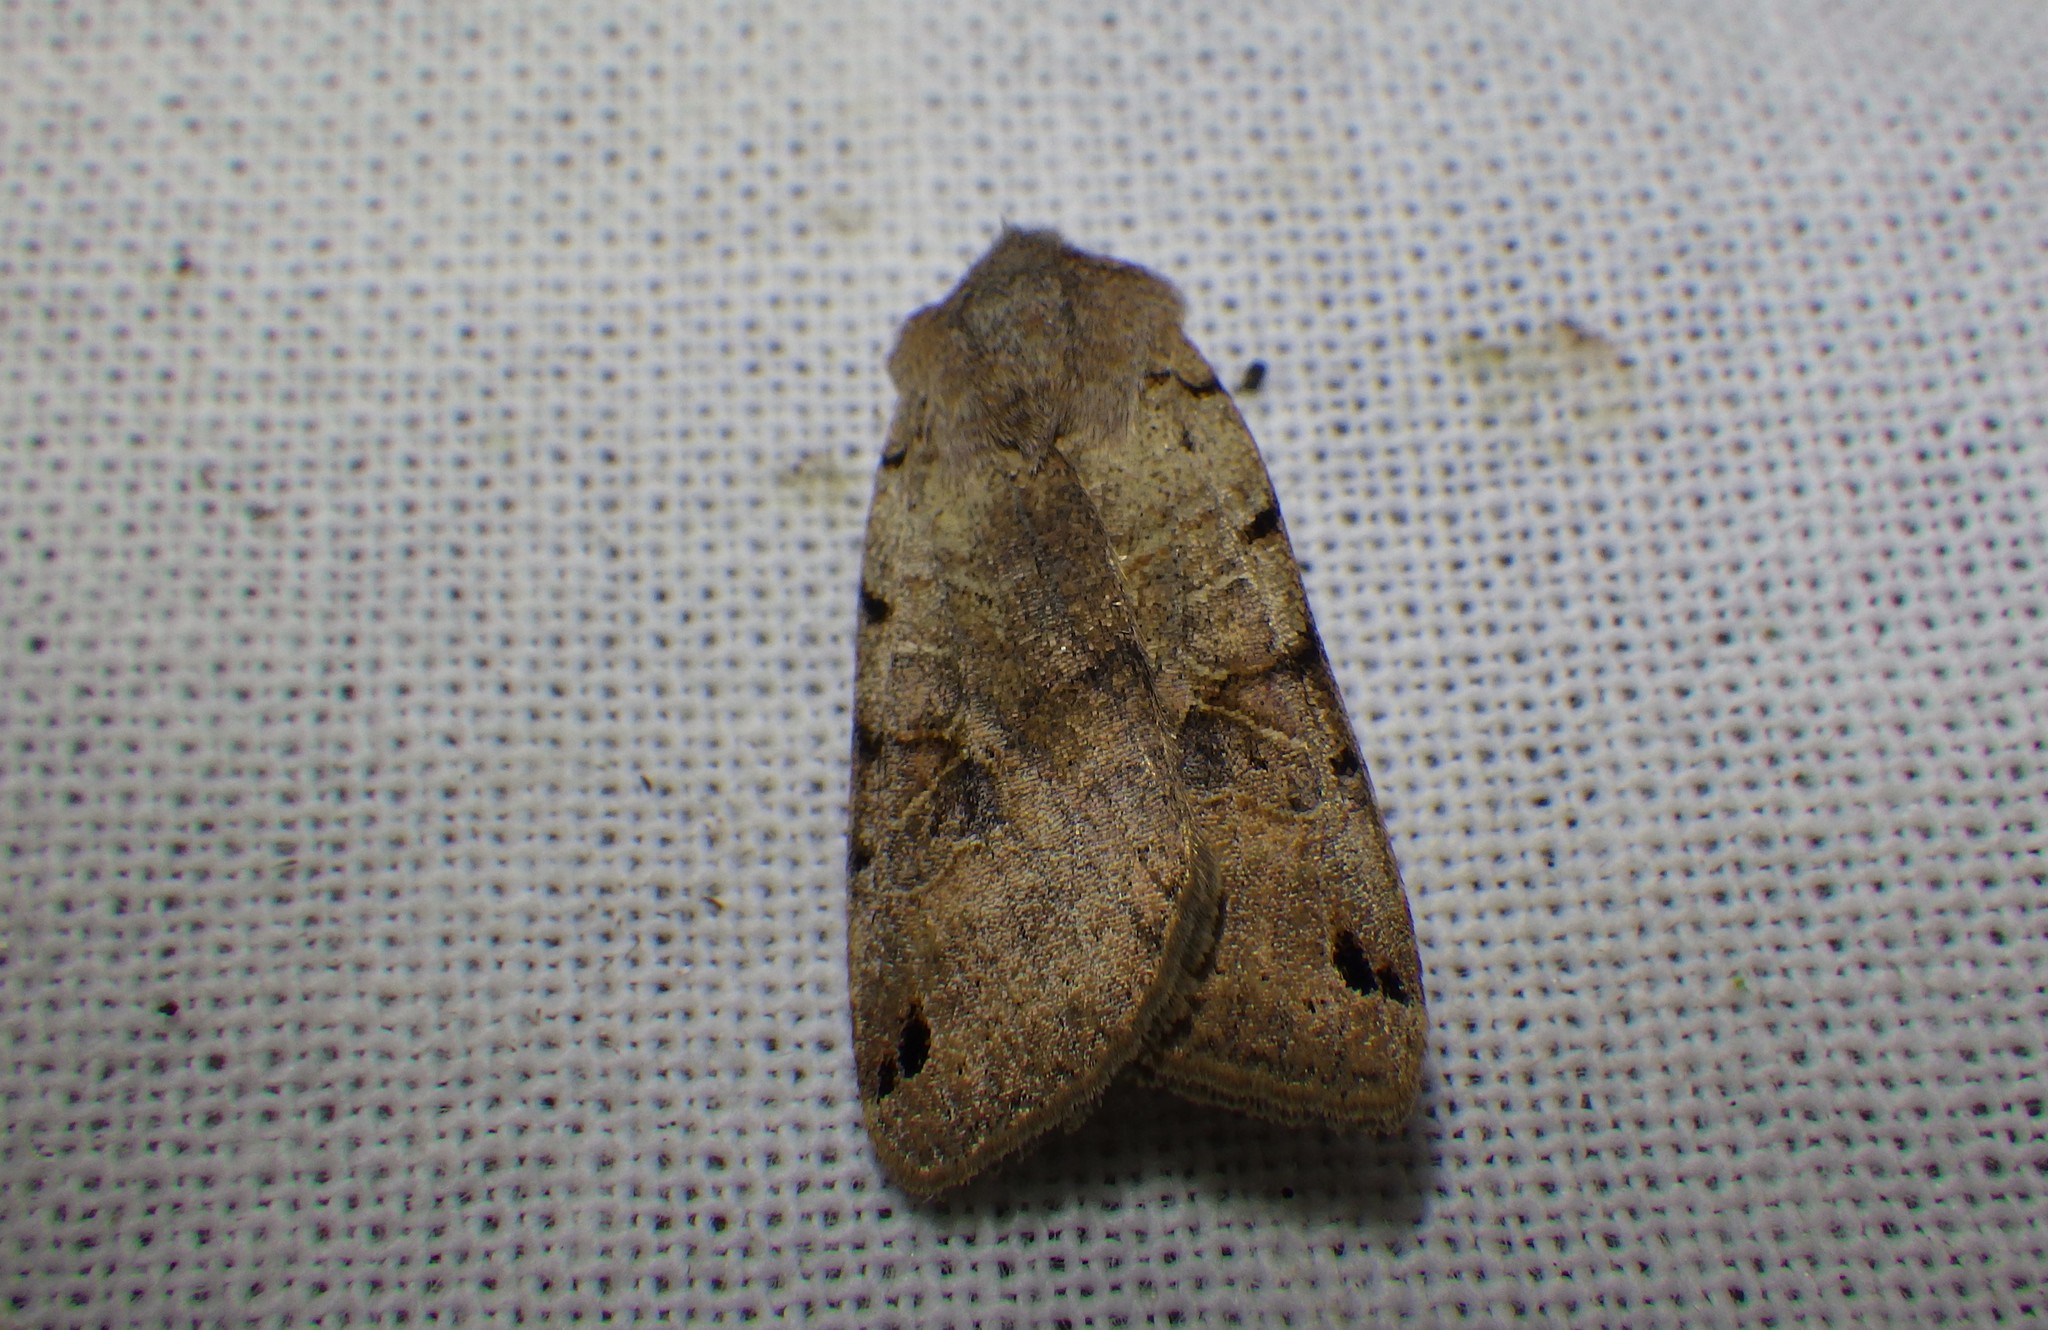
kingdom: Animalia
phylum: Arthropoda
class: Insecta
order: Lepidoptera
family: Noctuidae
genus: Agrochola
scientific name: Agrochola litura
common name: Brown-spot pinion
